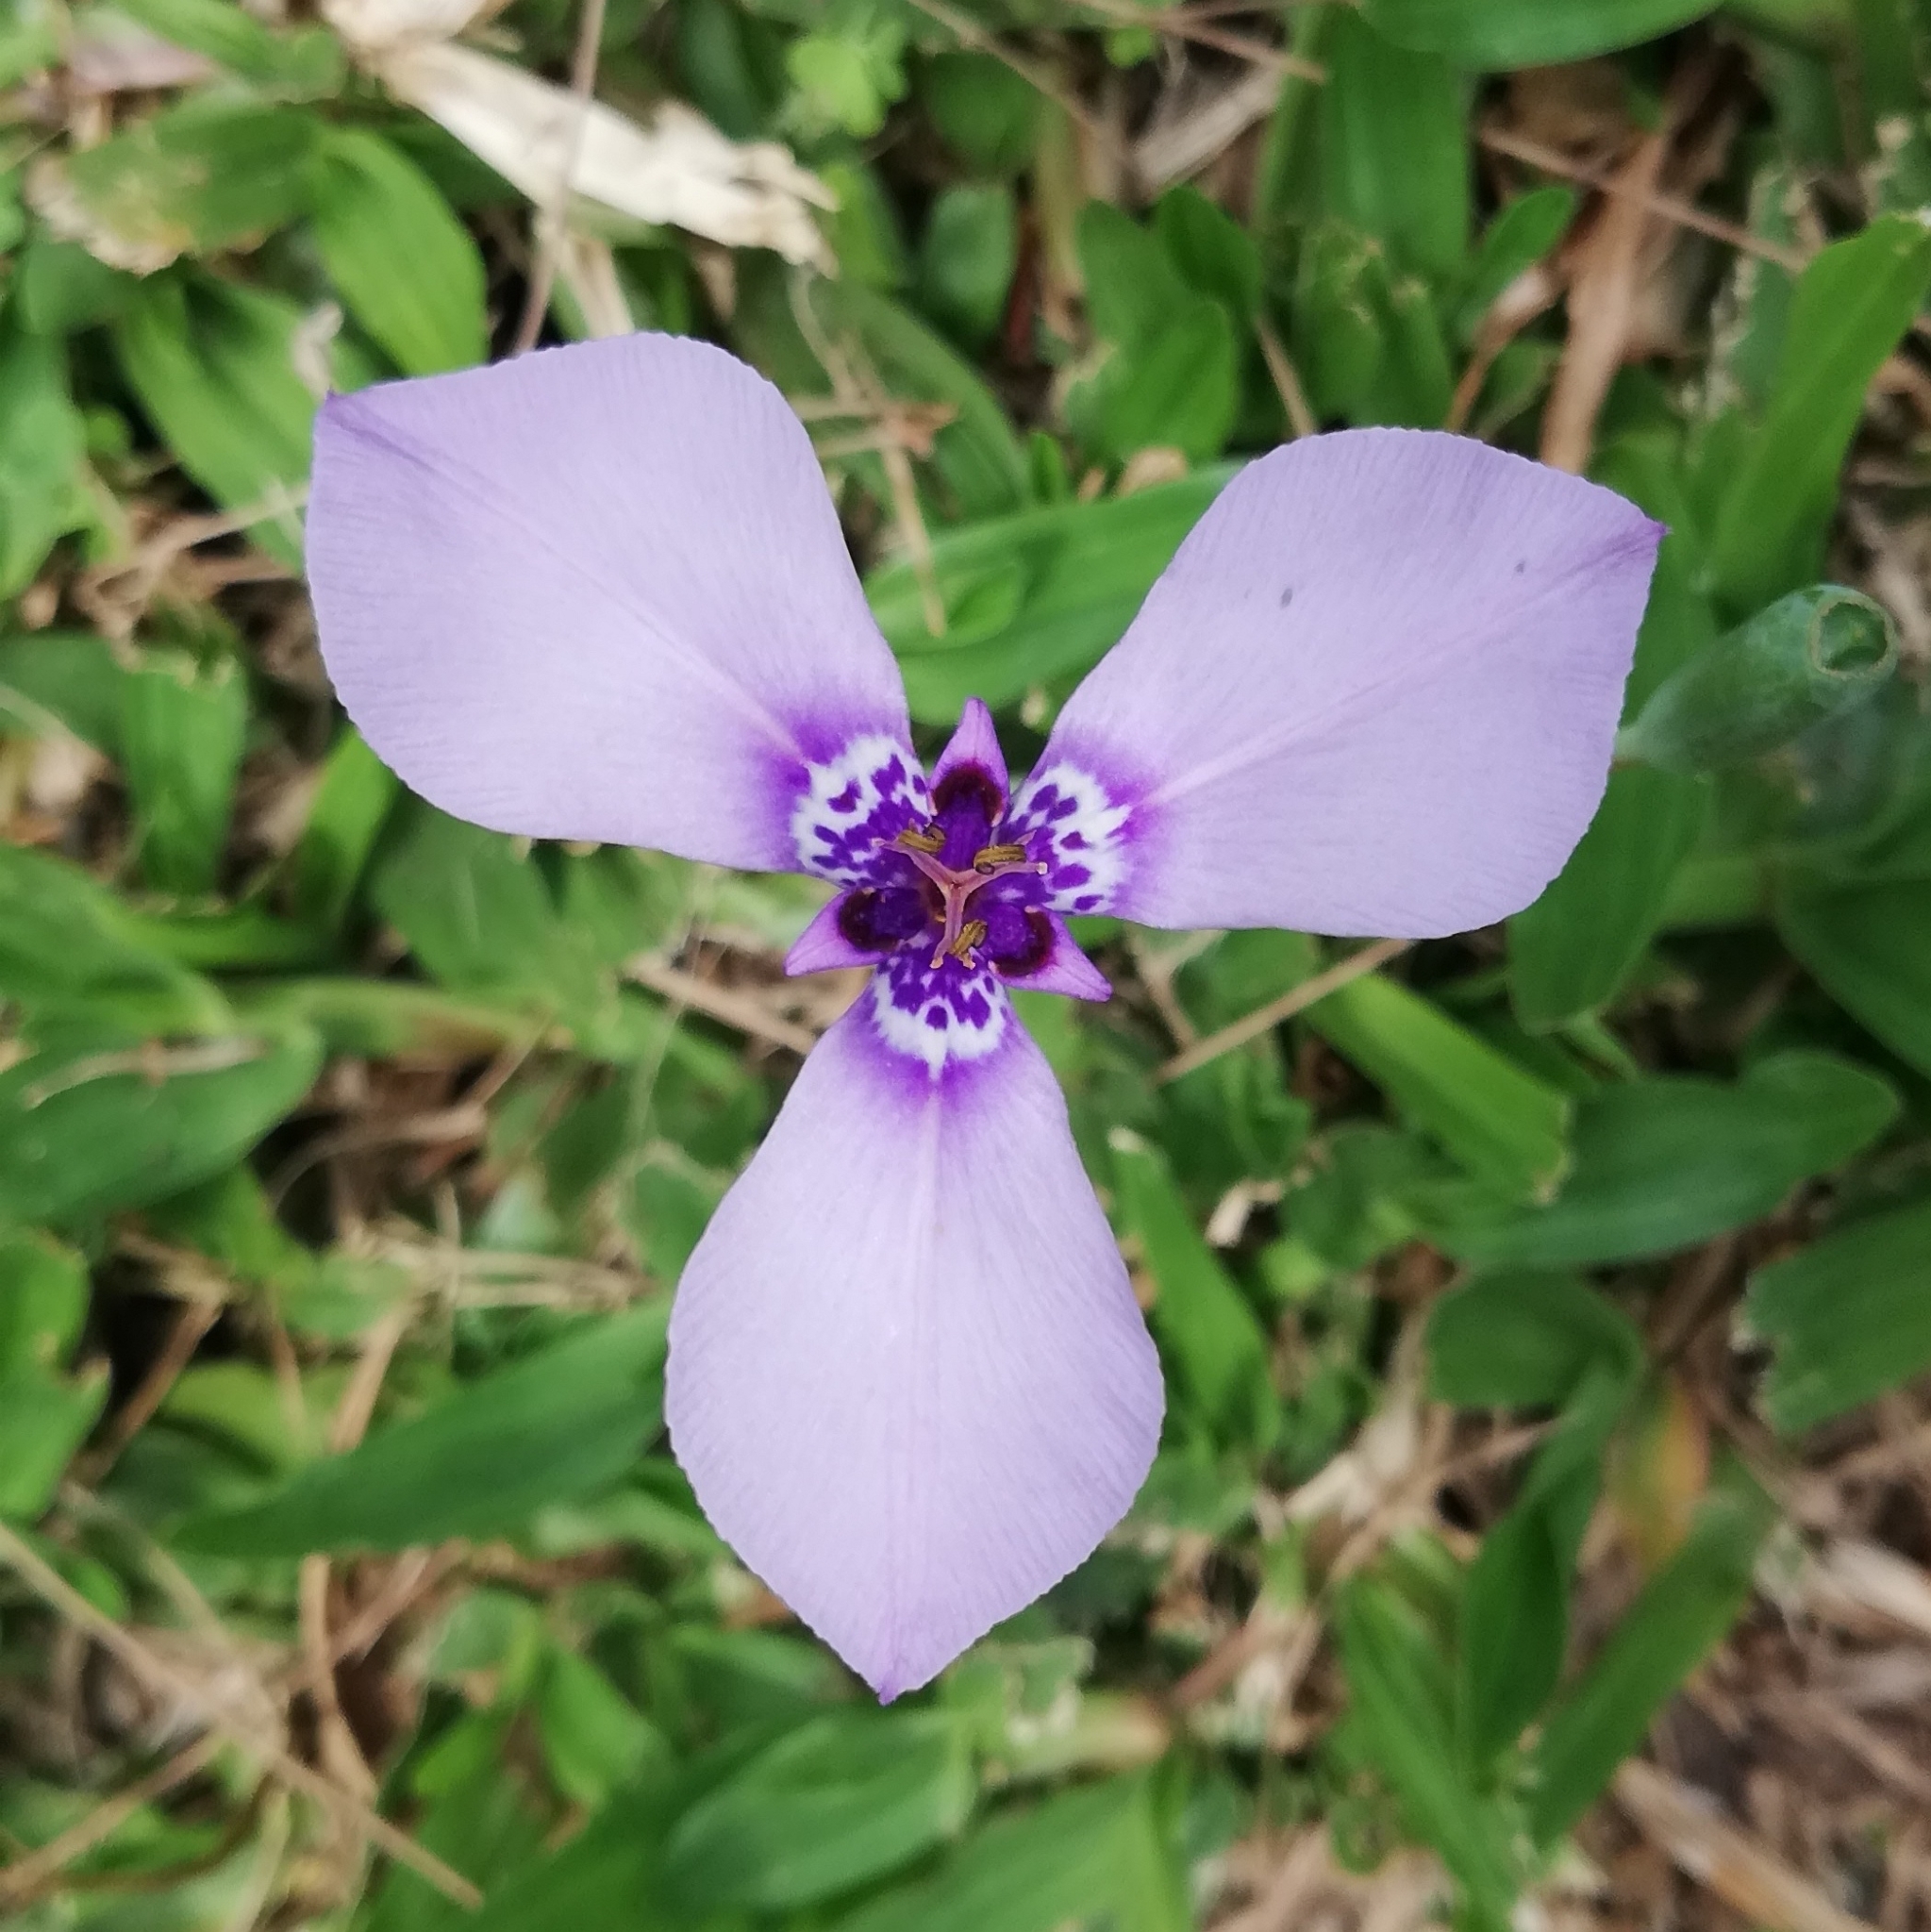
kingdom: Plantae
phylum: Tracheophyta
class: Liliopsida
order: Asparagales
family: Iridaceae
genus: Herbertia
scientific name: Herbertia lahue
